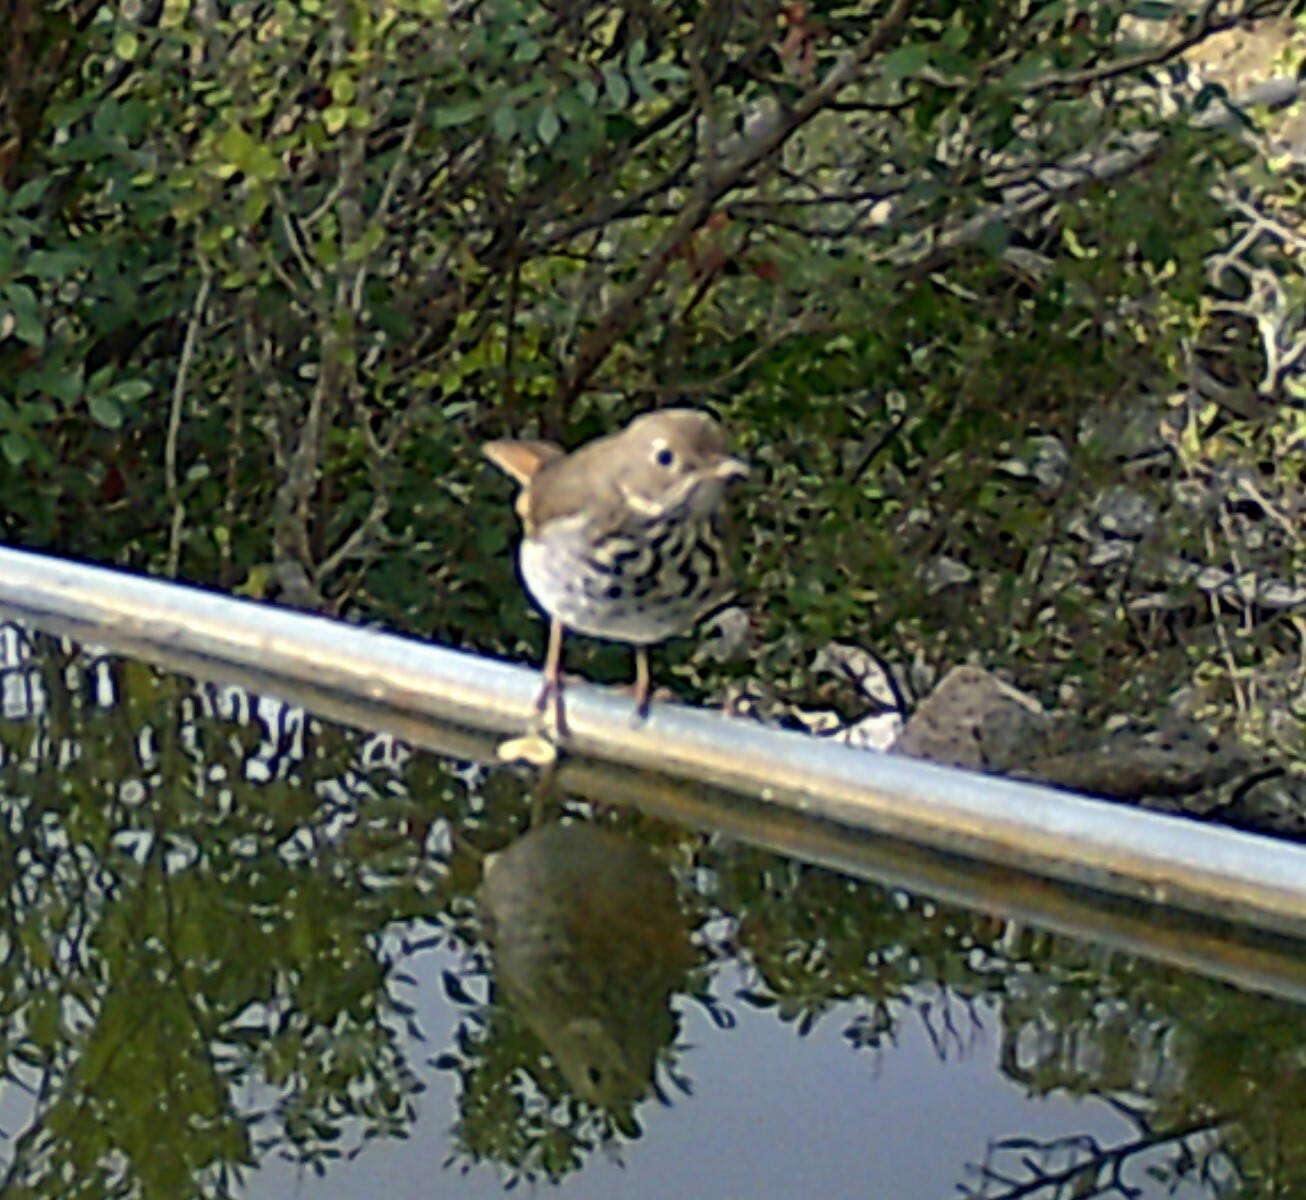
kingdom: Animalia
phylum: Chordata
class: Aves
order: Passeriformes
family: Turdidae
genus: Catharus
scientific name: Catharus guttatus
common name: Hermit thrush
